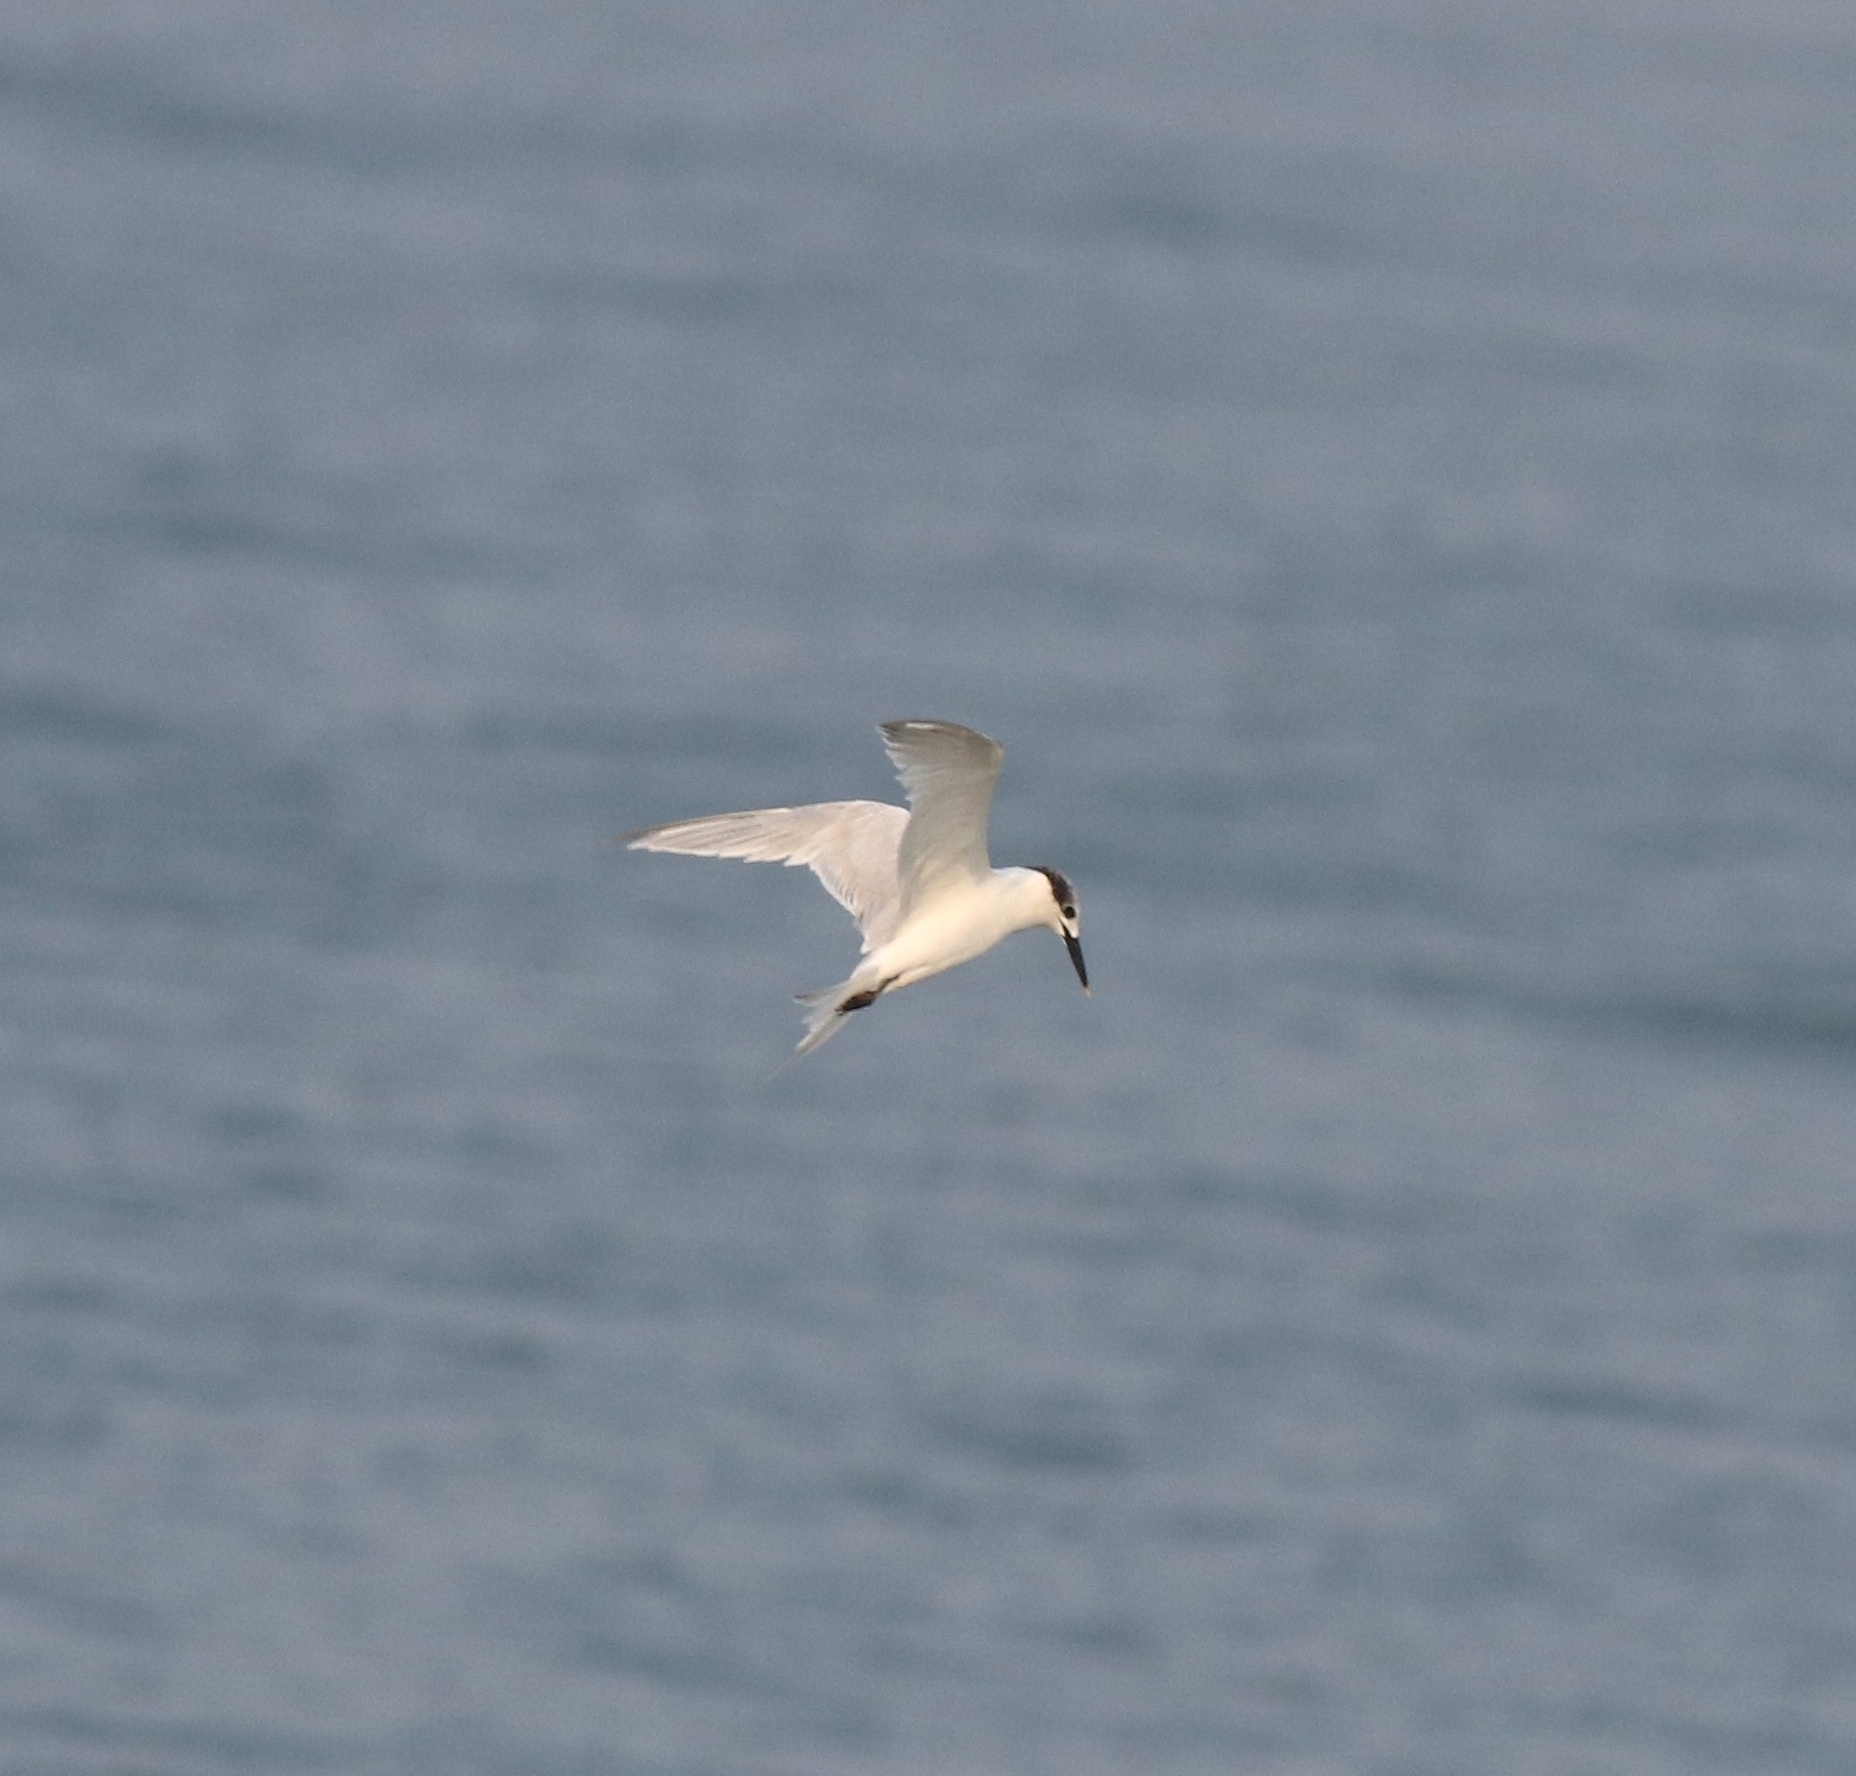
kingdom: Animalia
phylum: Chordata
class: Aves
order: Charadriiformes
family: Laridae
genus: Thalasseus
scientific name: Thalasseus sandvicensis
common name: Sandwich tern
